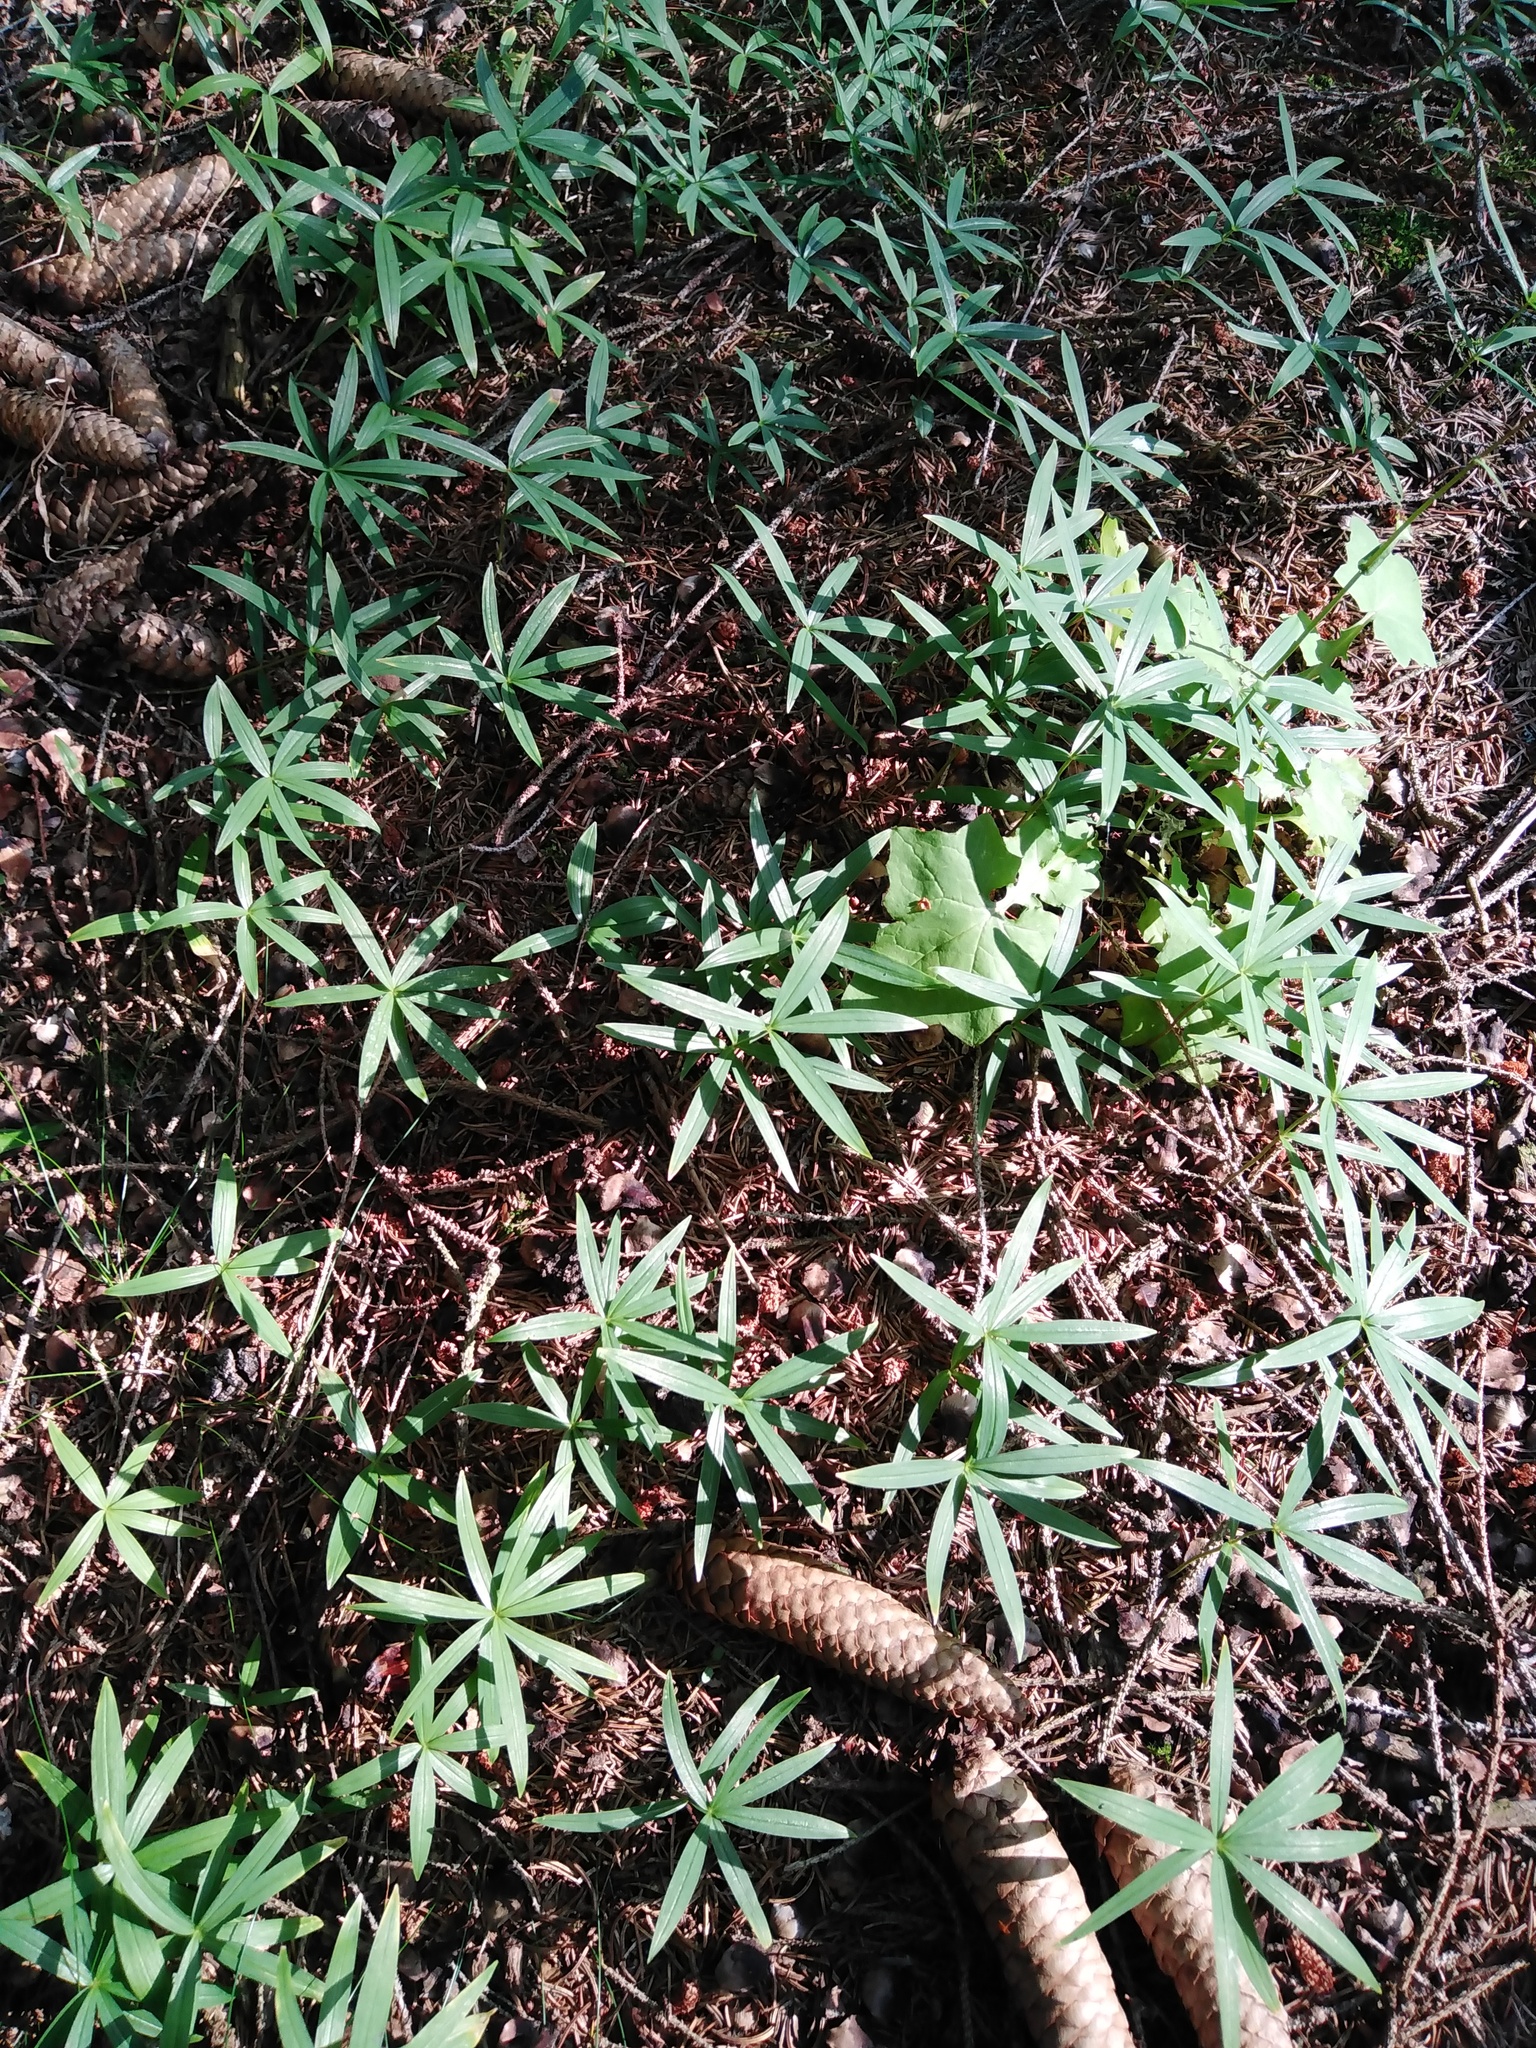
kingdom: Plantae
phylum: Tracheophyta
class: Liliopsida
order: Asparagales
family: Asparagaceae
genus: Polygonatum
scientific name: Polygonatum verticillatum
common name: Whorled solomon's-seal
